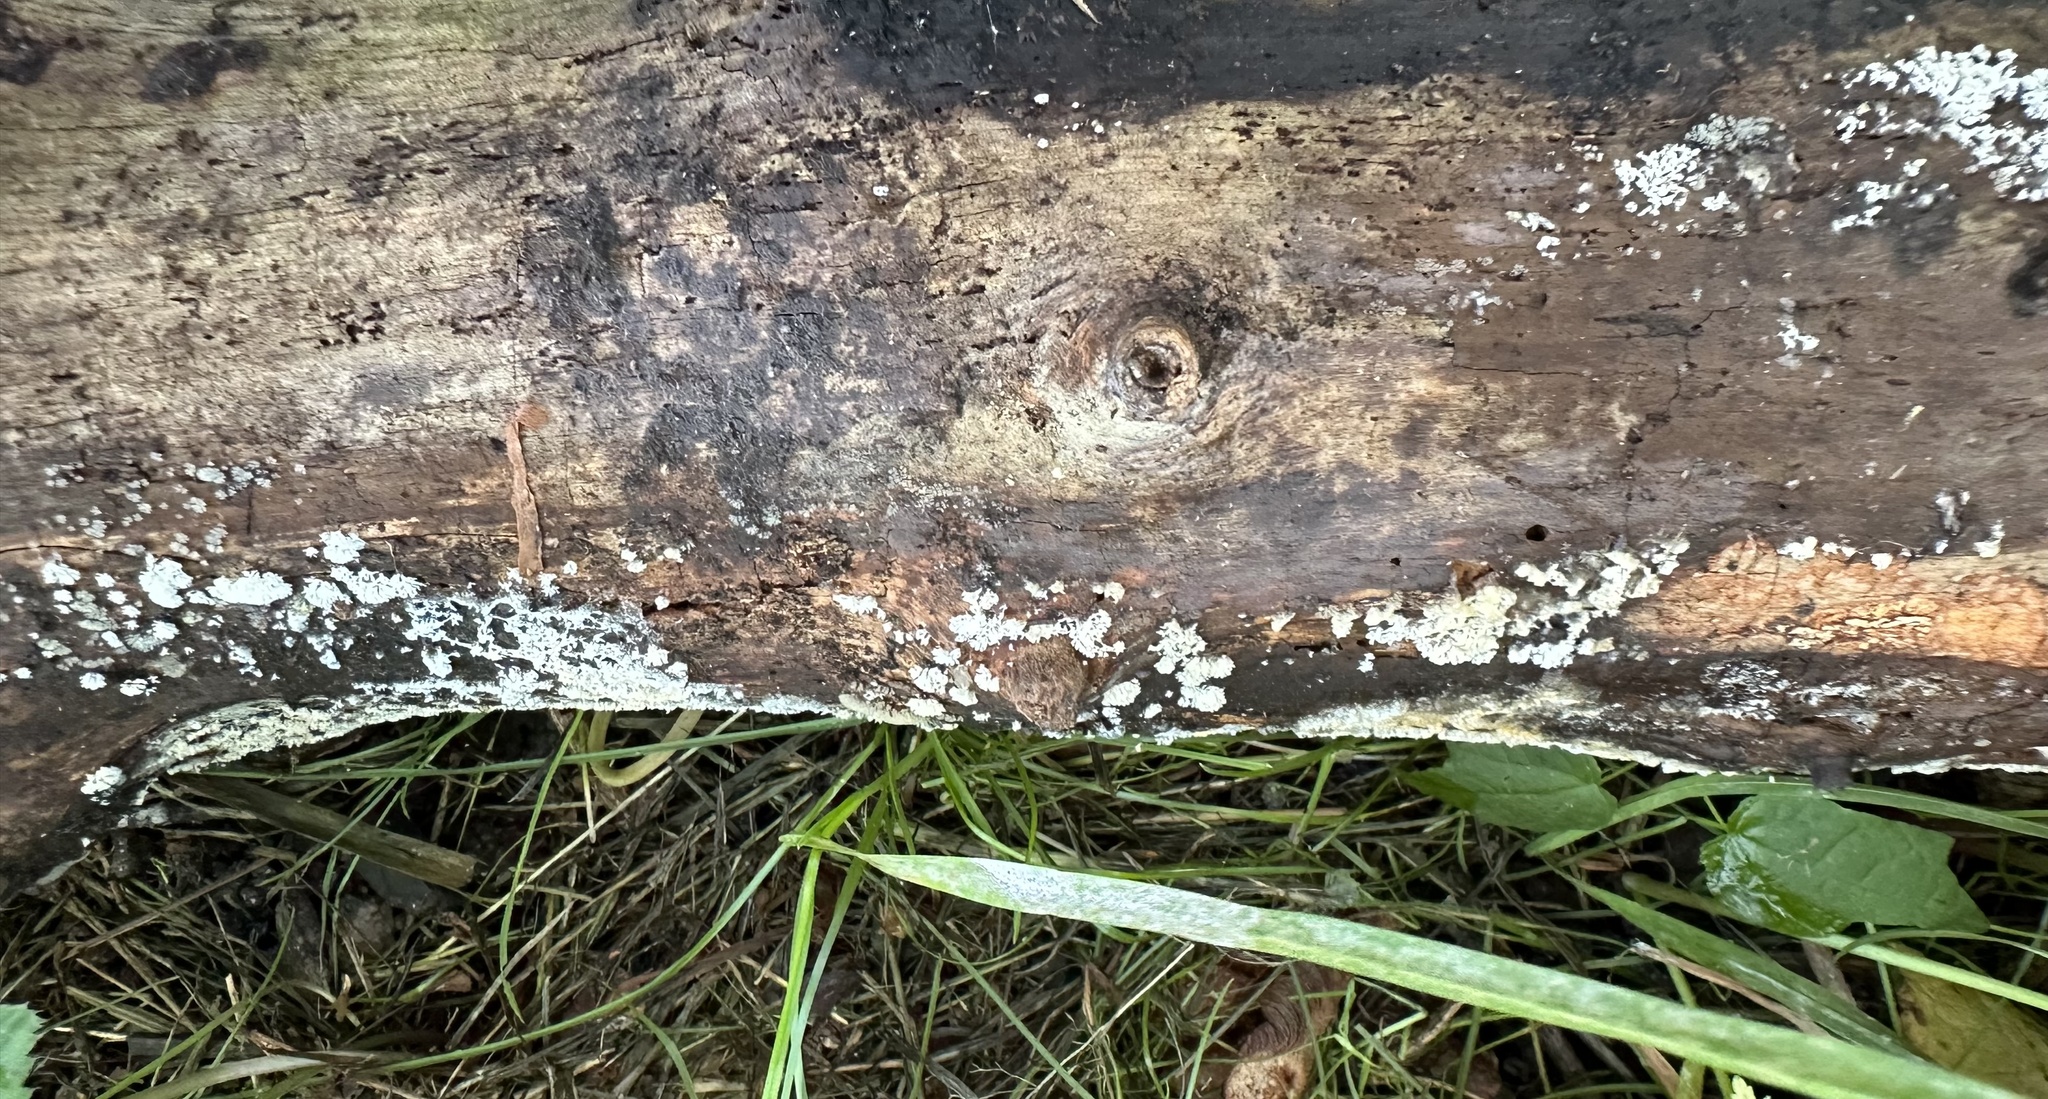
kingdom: Protozoa
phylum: Mycetozoa
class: Protosteliomycetes
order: Ceratiomyxales
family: Ceratiomyxaceae
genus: Ceratiomyxa
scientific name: Ceratiomyxa fruticulosa
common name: Honeycomb coral slime mold
